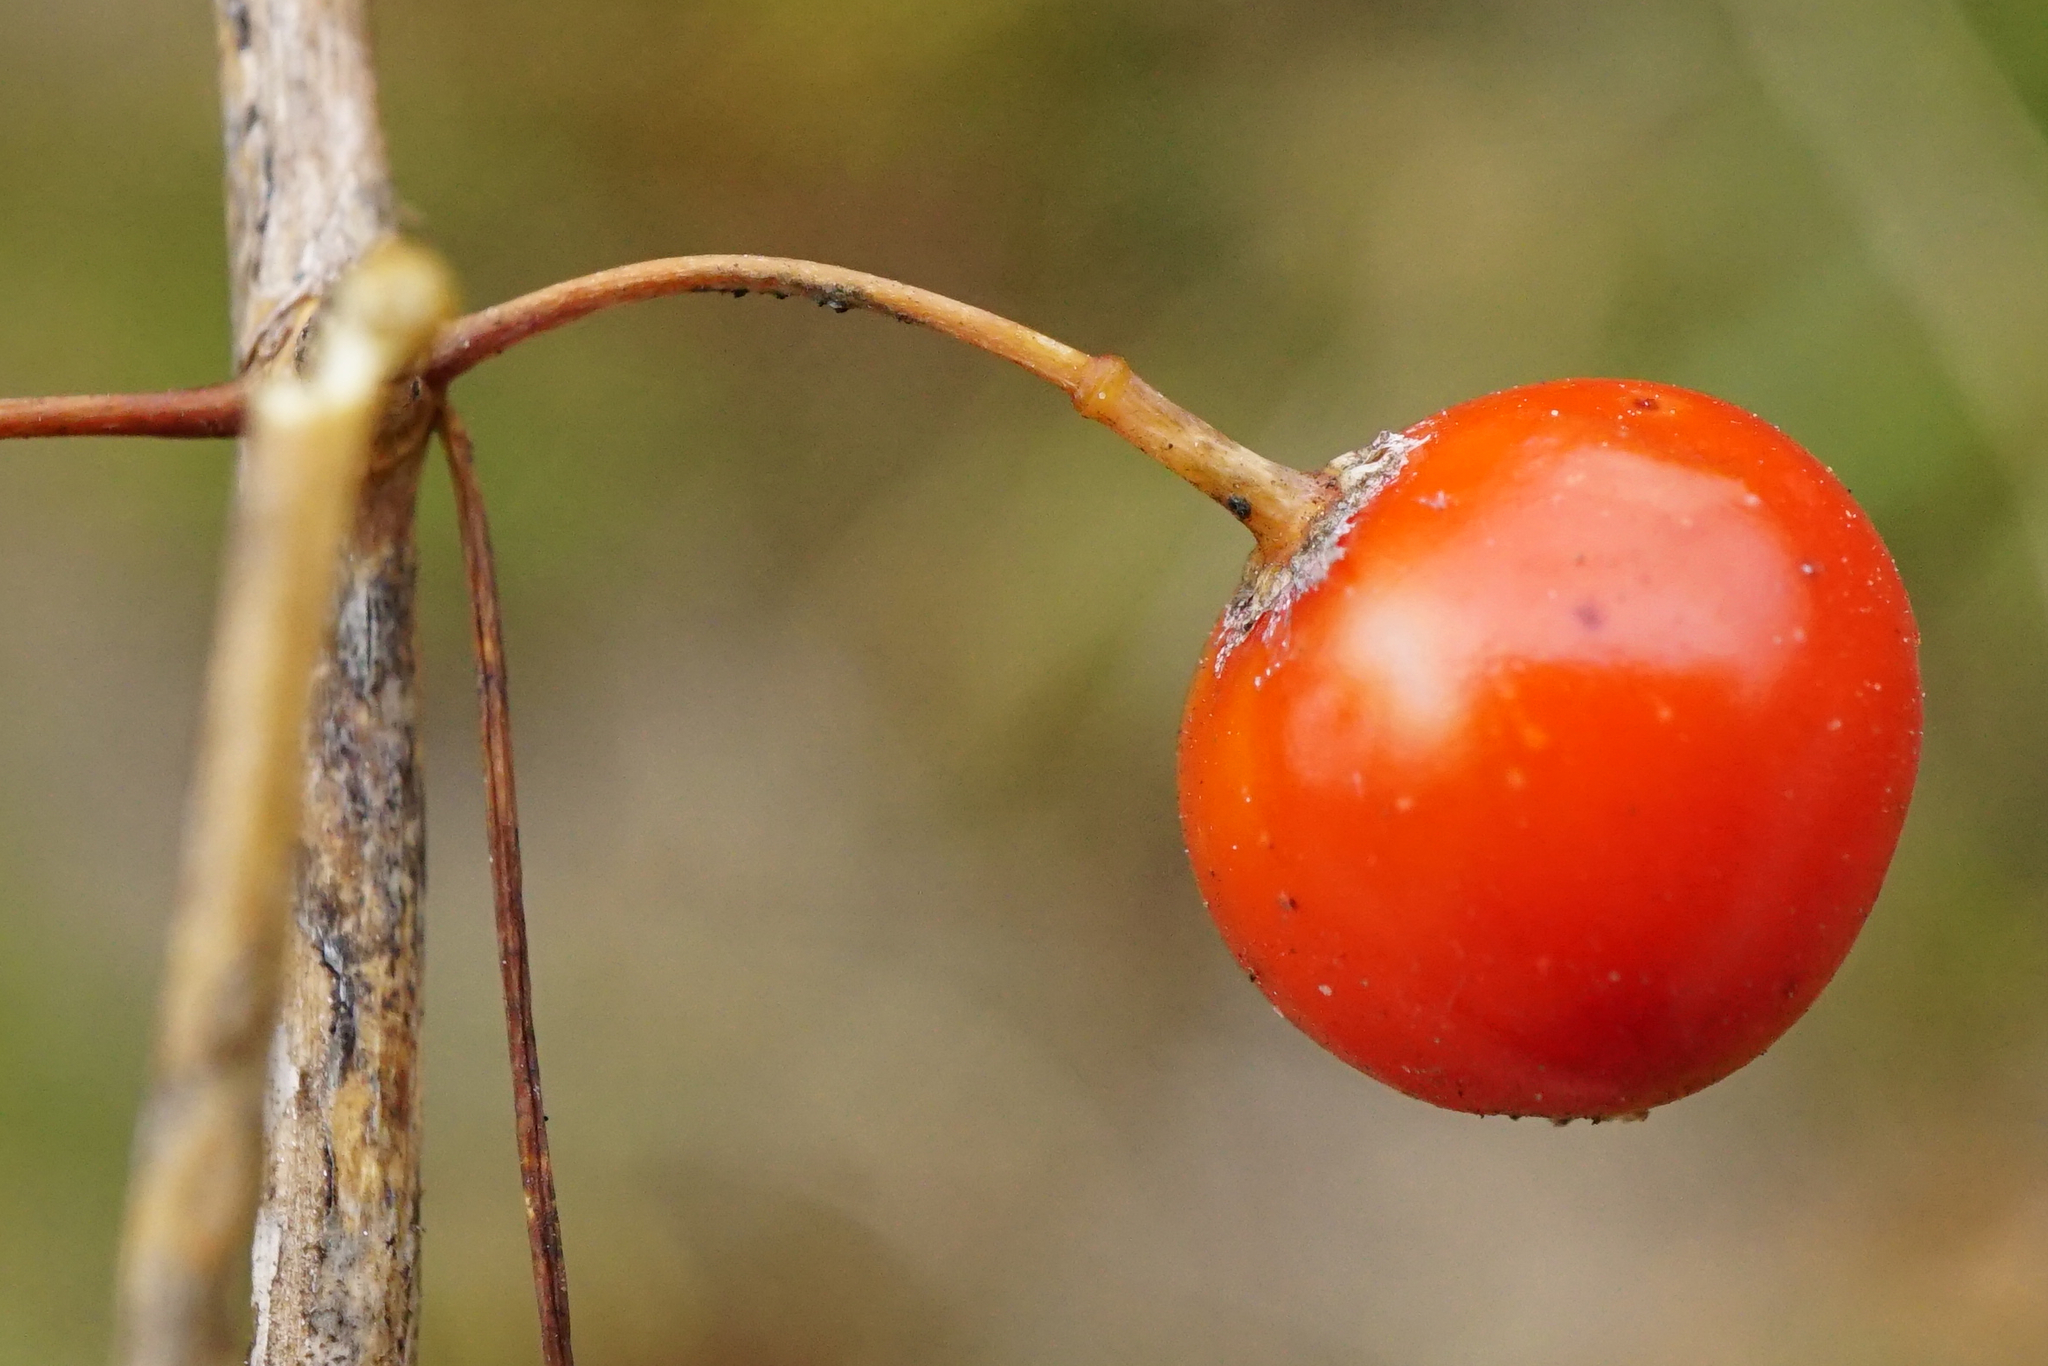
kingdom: Plantae
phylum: Tracheophyta
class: Liliopsida
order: Asparagales
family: Asparagaceae
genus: Asparagus
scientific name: Asparagus officinalis
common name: Garden asparagus
